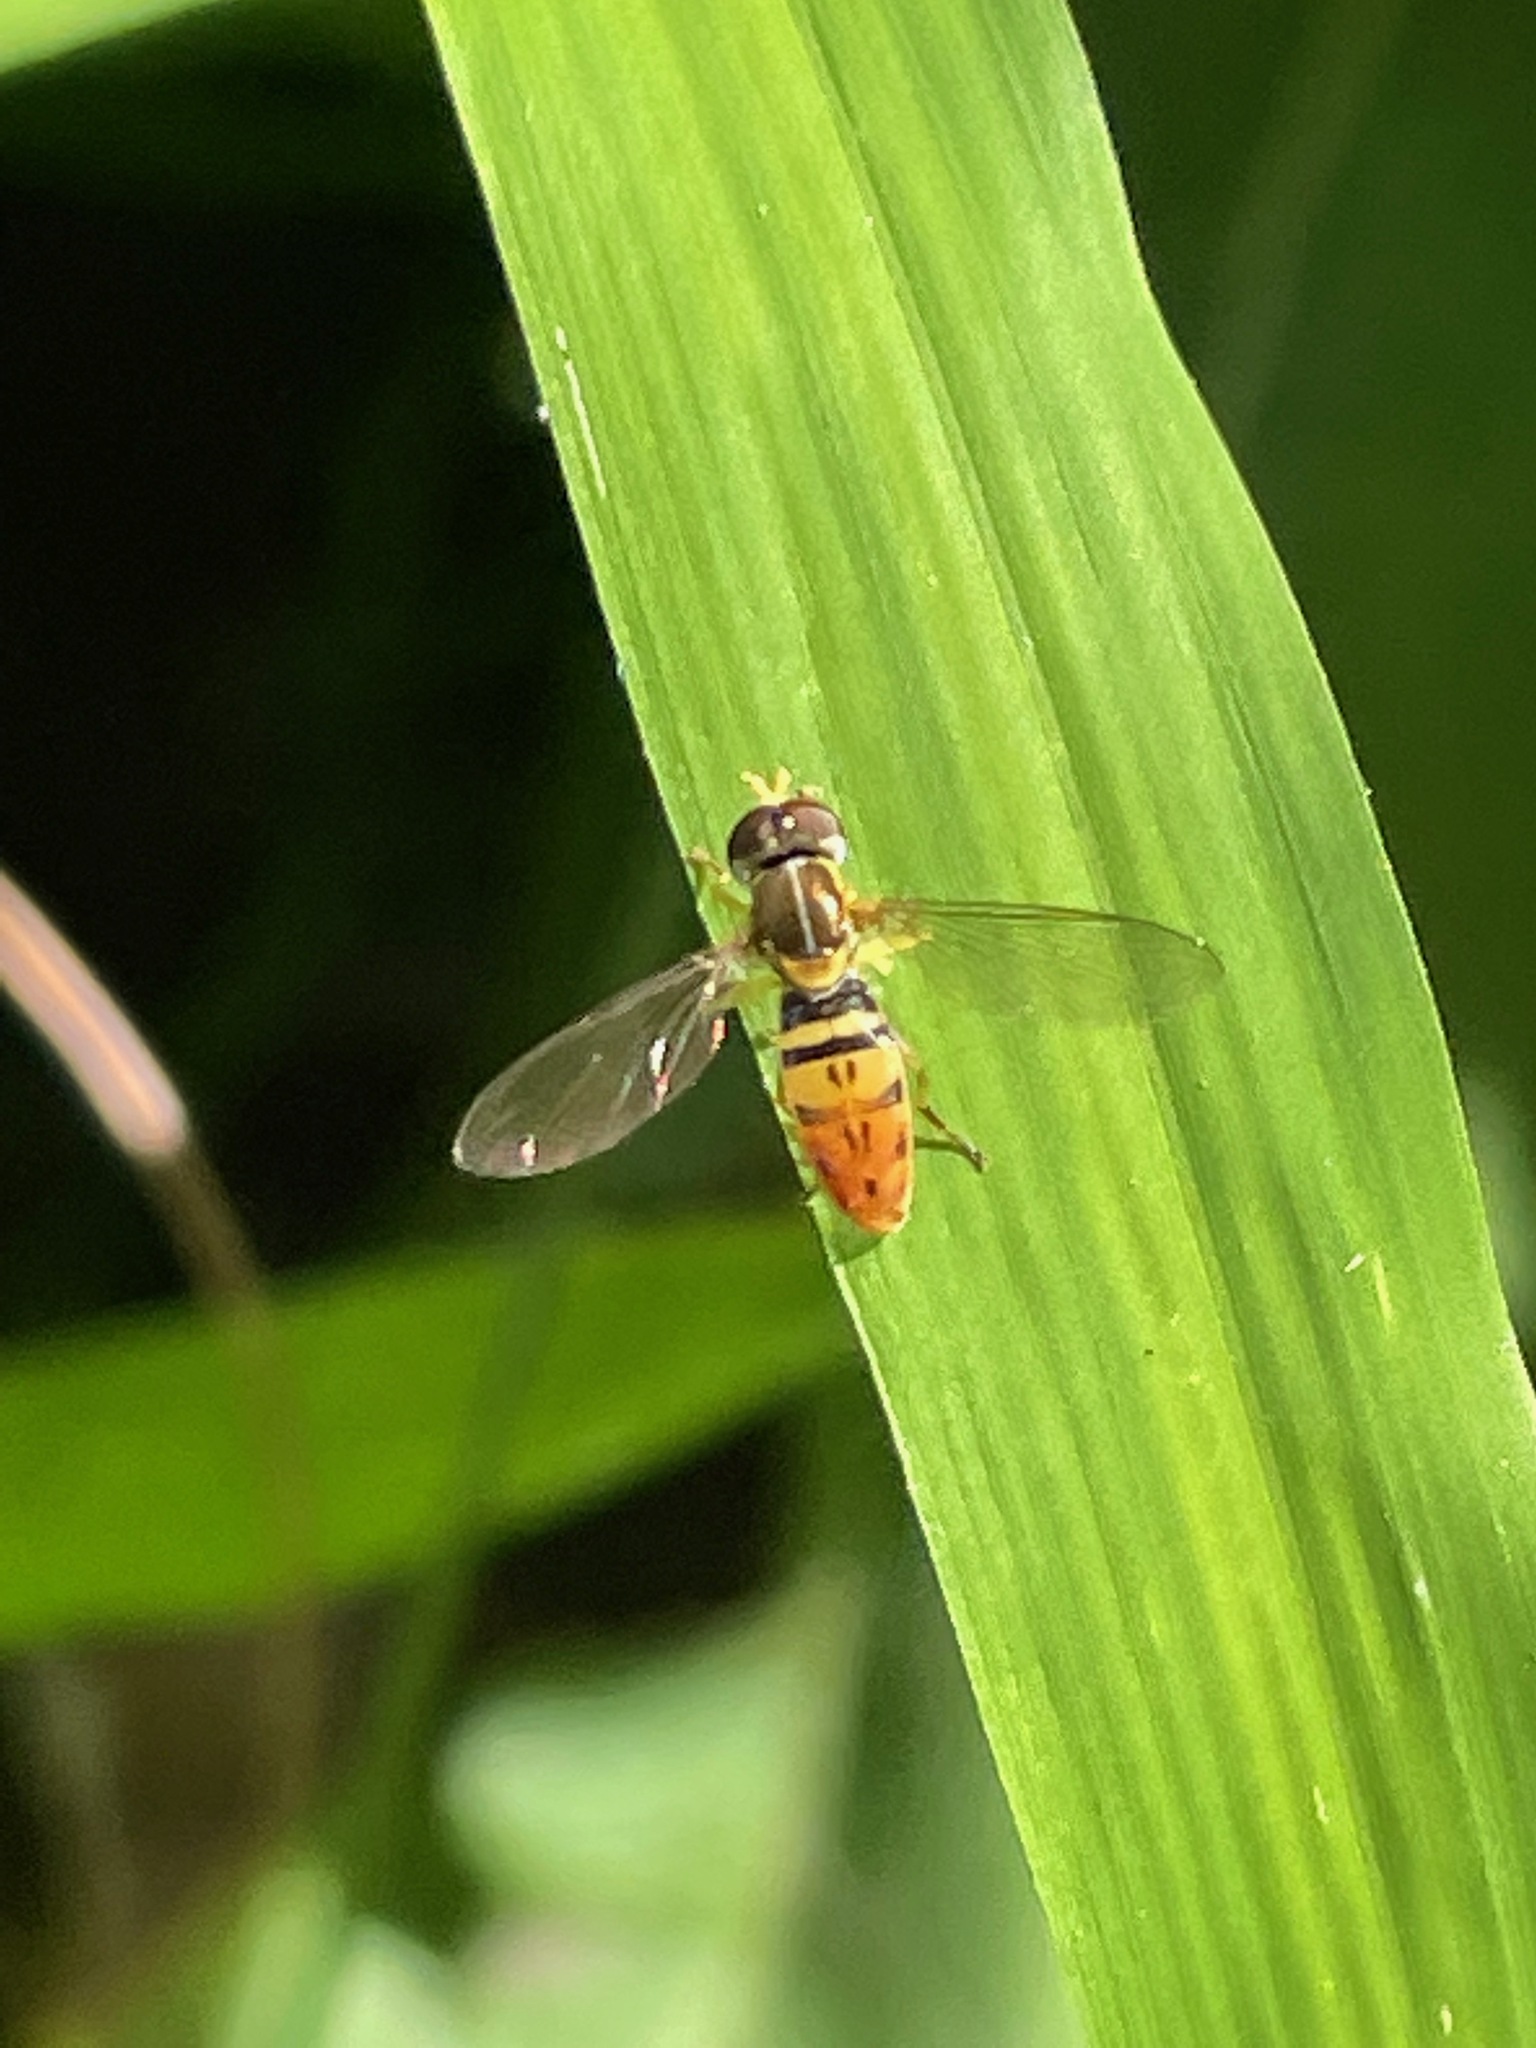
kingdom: Animalia
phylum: Arthropoda
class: Insecta
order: Diptera
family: Syrphidae
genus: Toxomerus
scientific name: Toxomerus marginatus
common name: Syrphid fly
